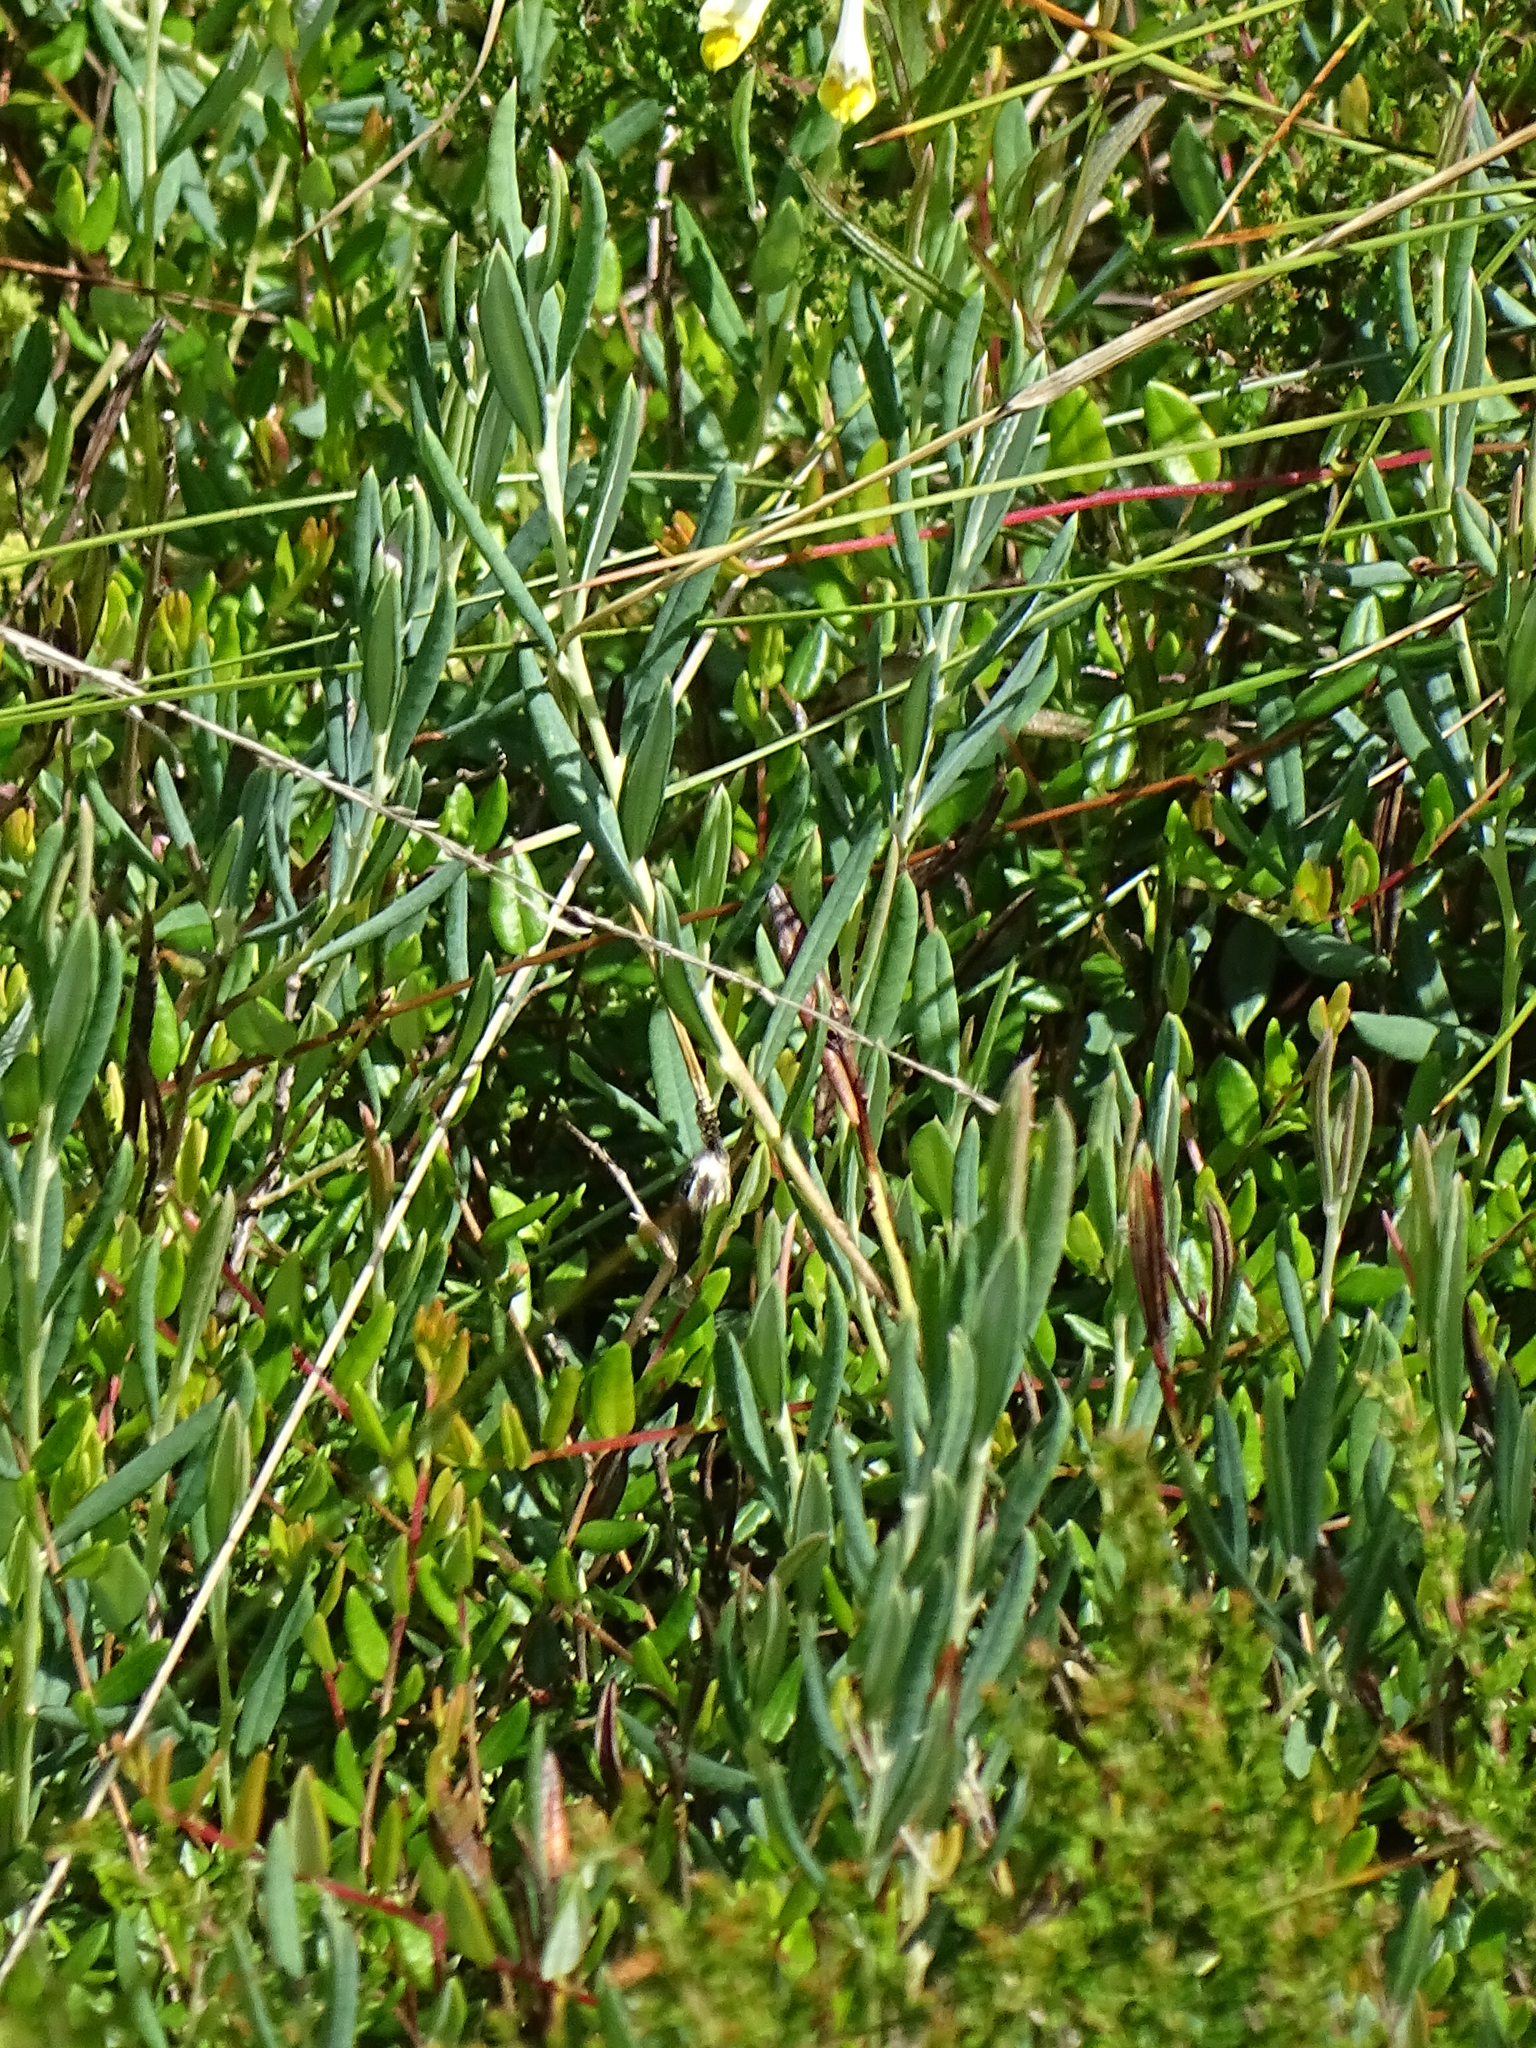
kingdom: Plantae
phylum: Tracheophyta
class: Magnoliopsida
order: Ericales
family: Ericaceae
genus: Andromeda
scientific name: Andromeda polifolia
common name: Bog-rosemary
